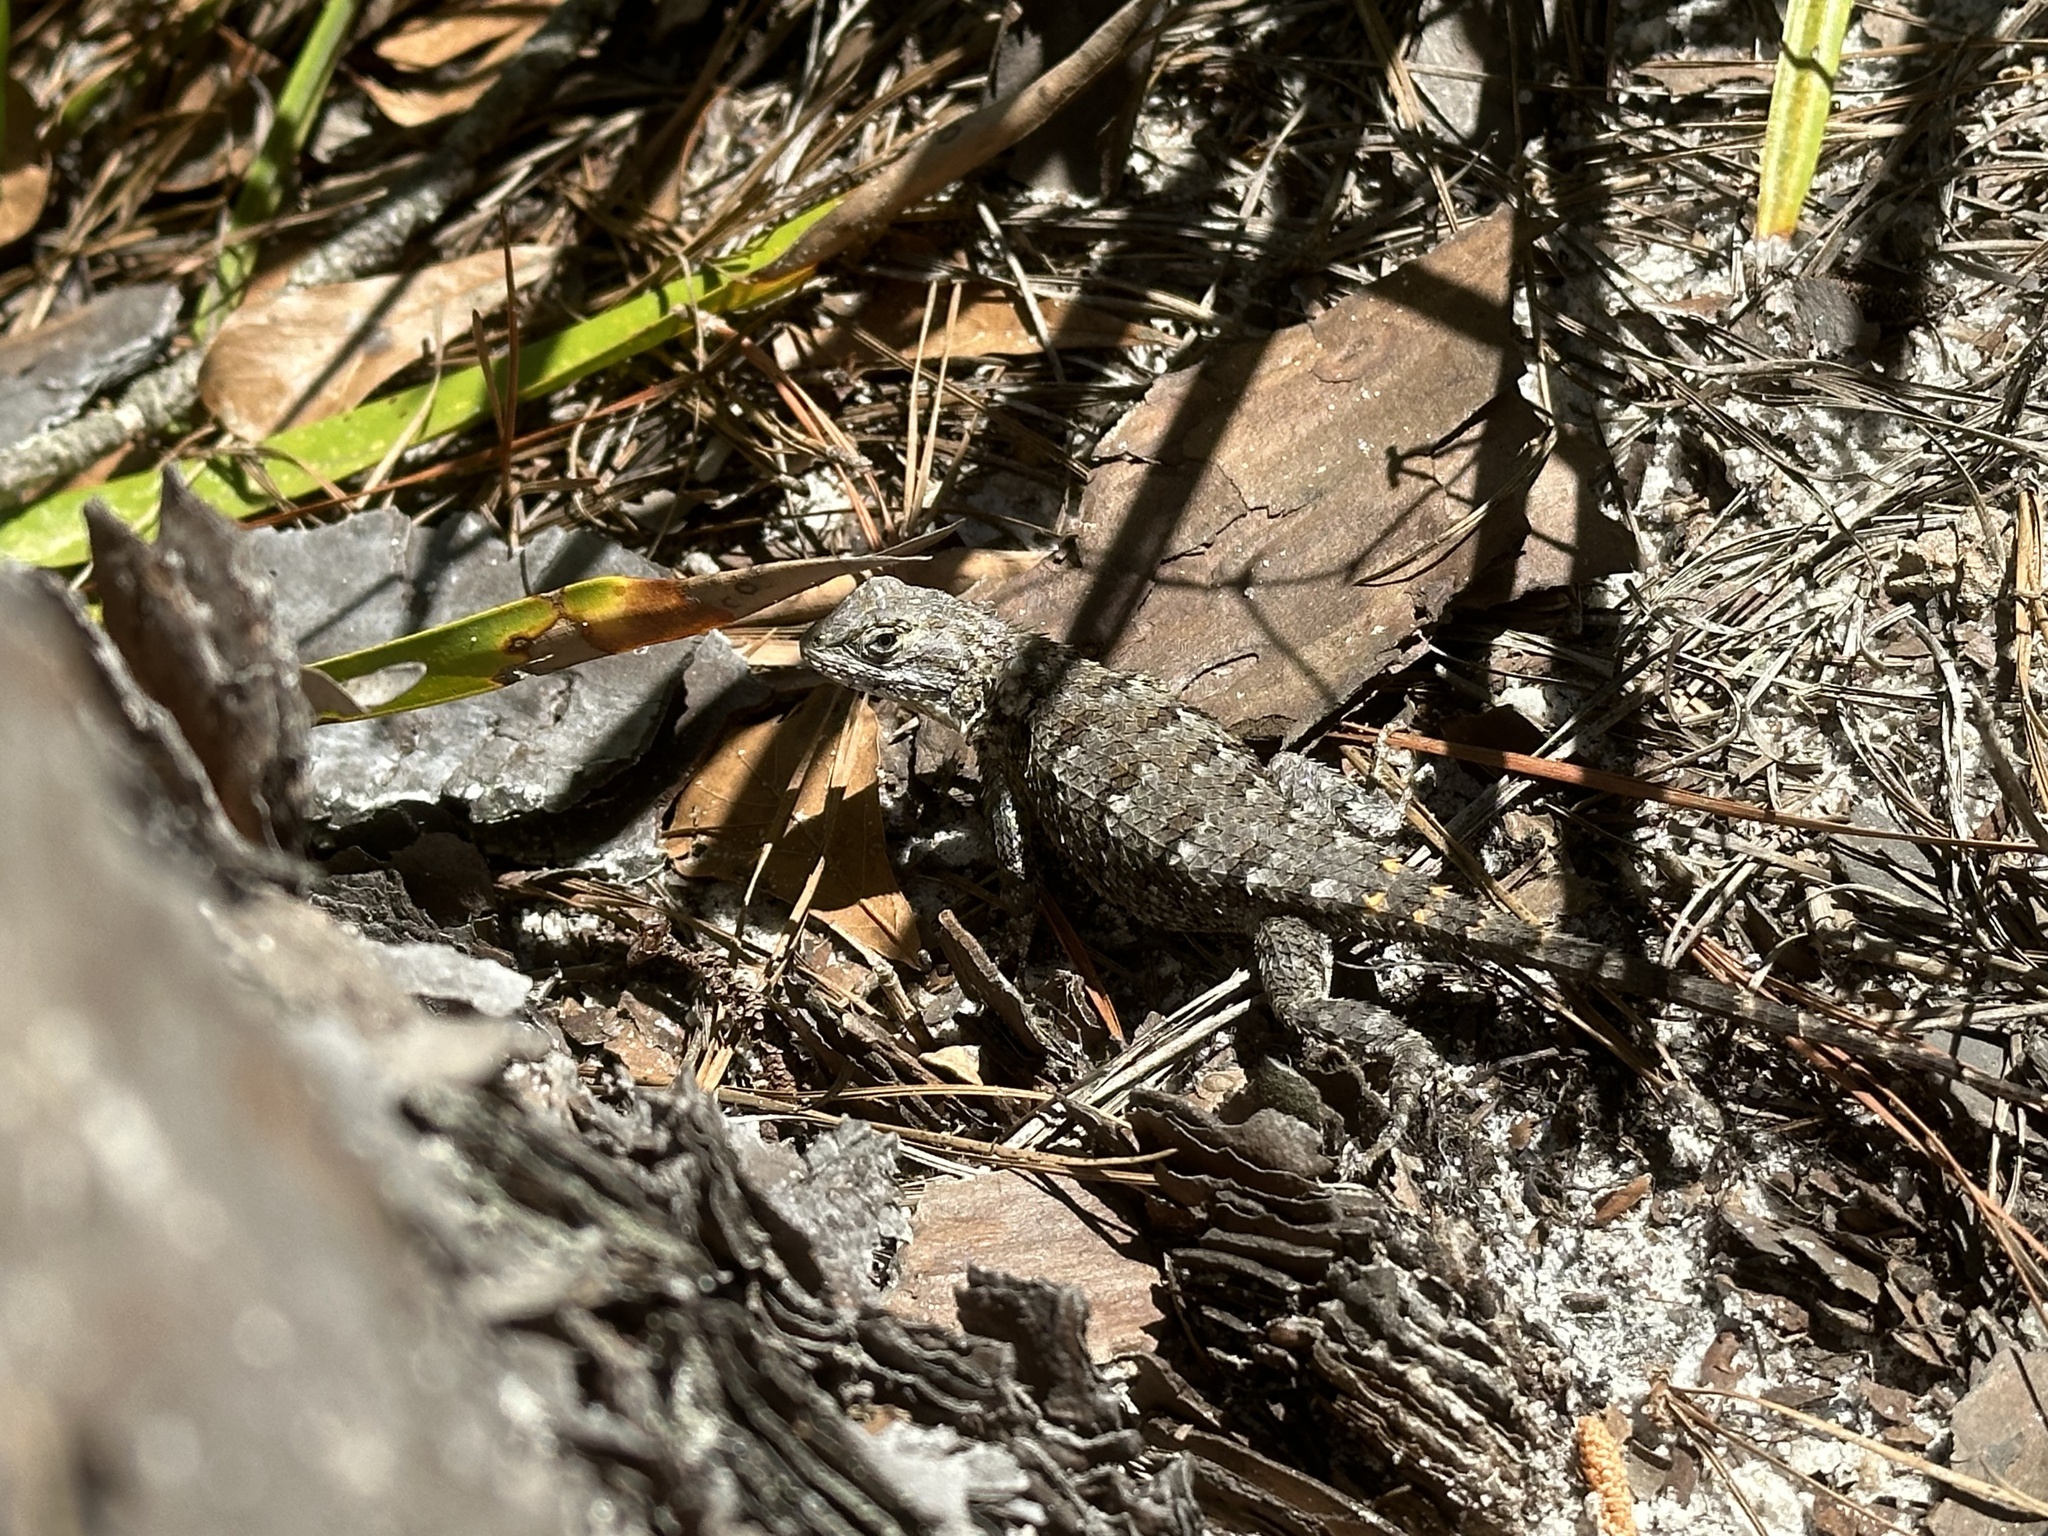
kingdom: Animalia
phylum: Chordata
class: Squamata
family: Phrynosomatidae
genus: Sceloporus
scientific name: Sceloporus undulatus
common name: Eastern fence lizard
